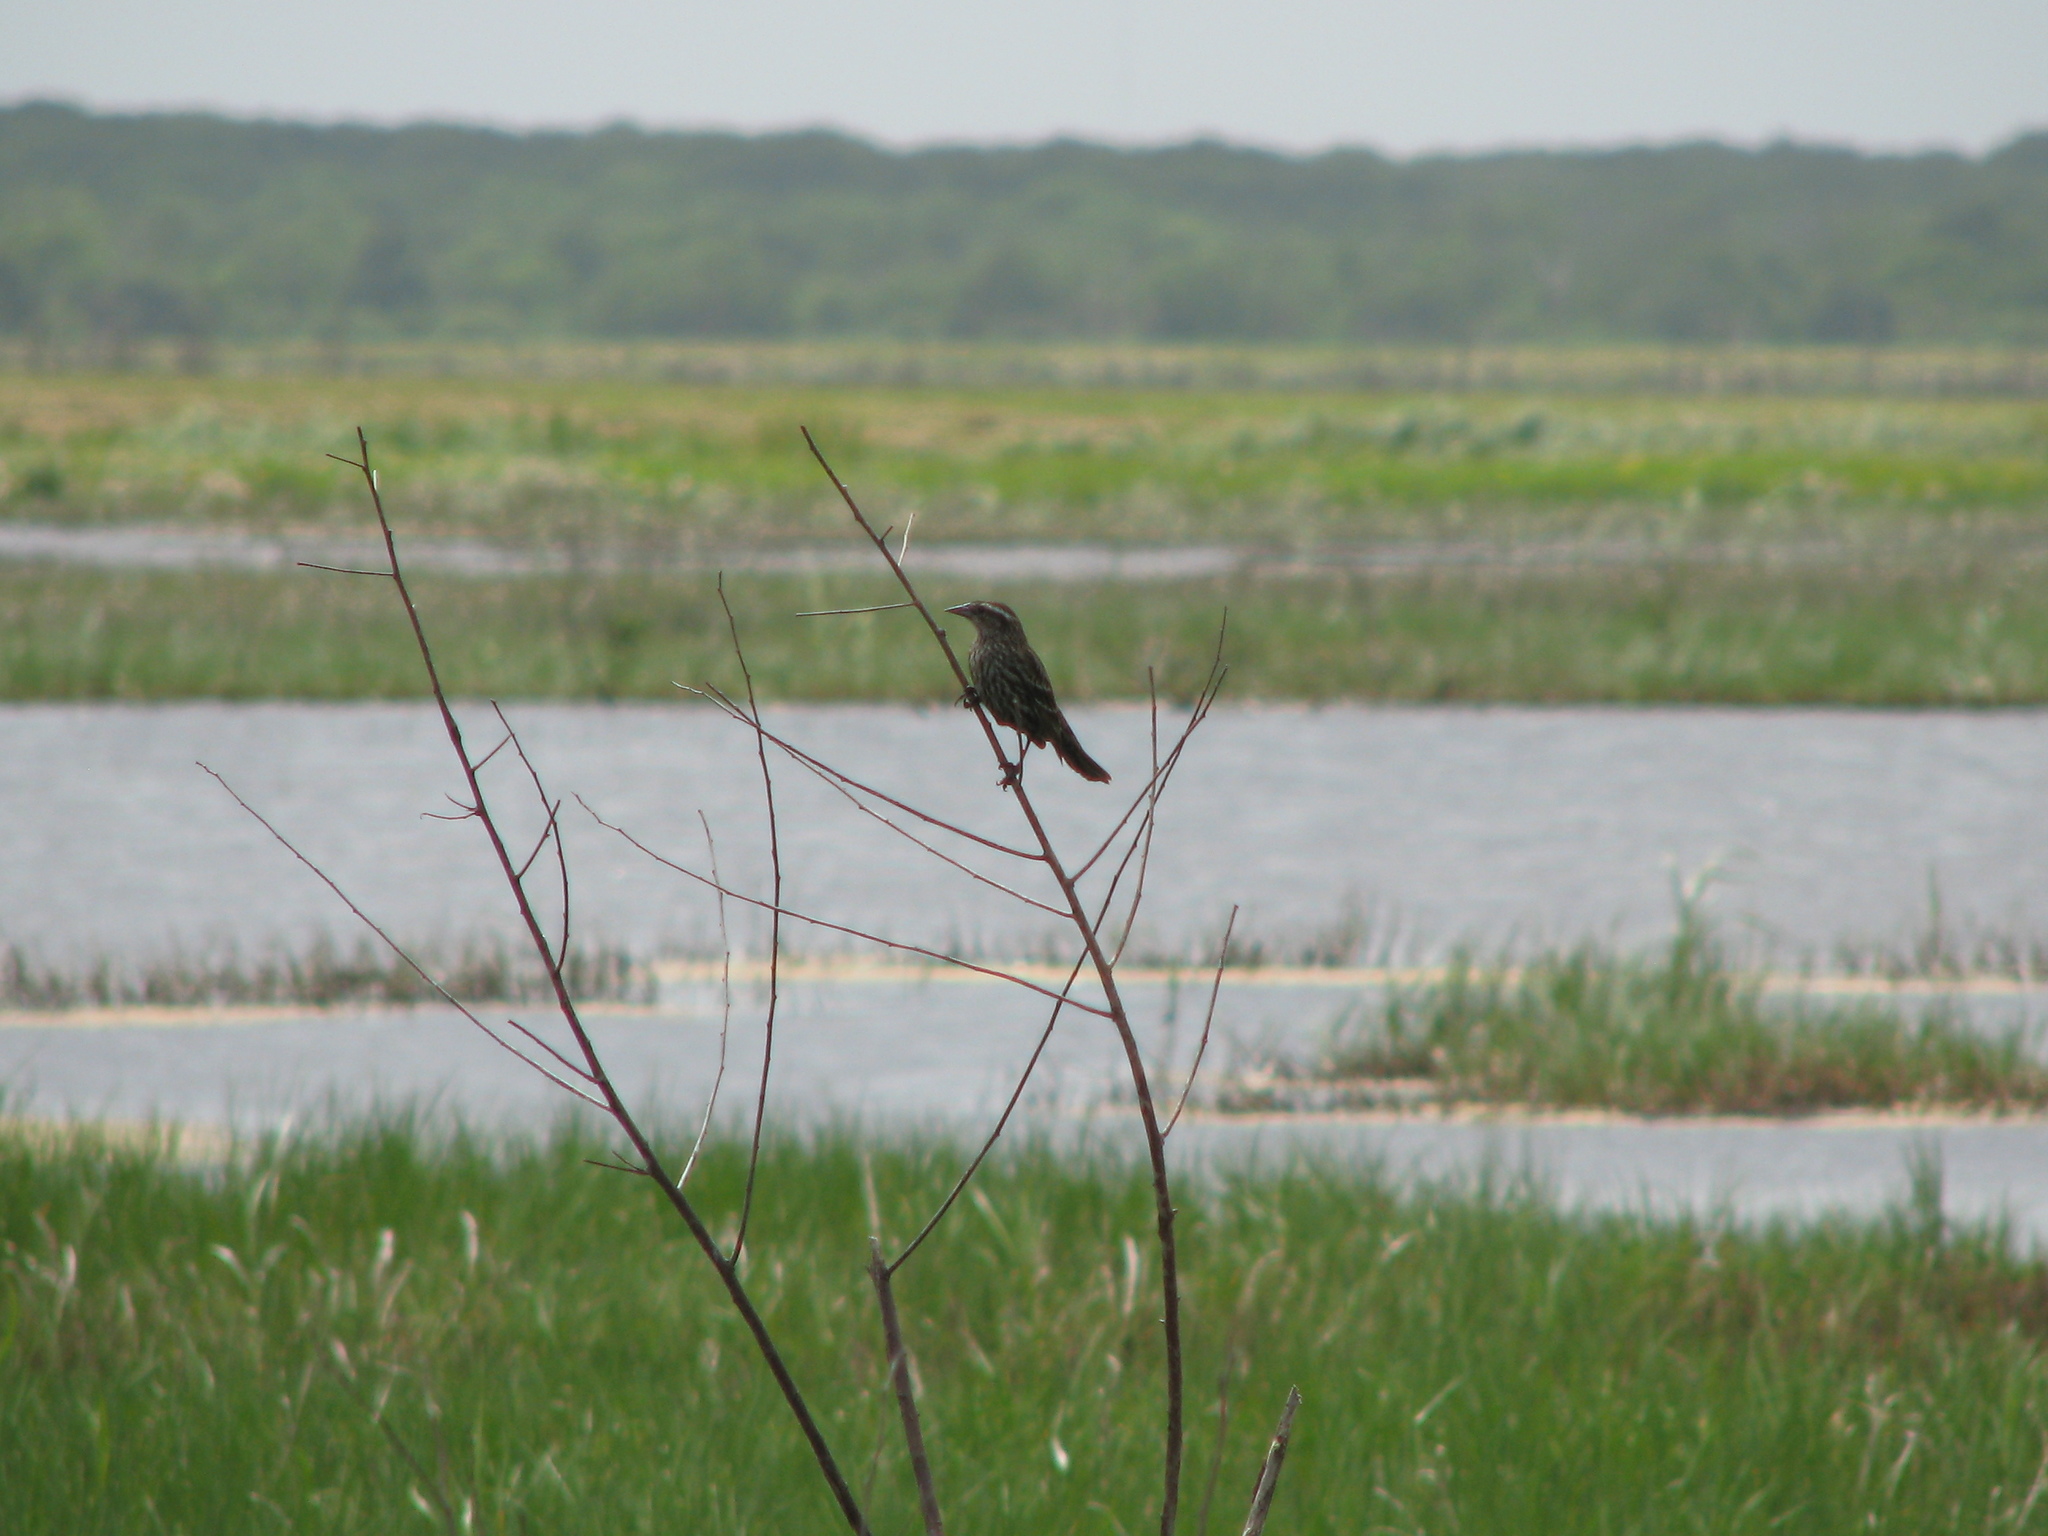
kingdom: Animalia
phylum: Chordata
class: Aves
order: Passeriformes
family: Icteridae
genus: Agelaius
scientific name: Agelaius phoeniceus
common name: Red-winged blackbird
